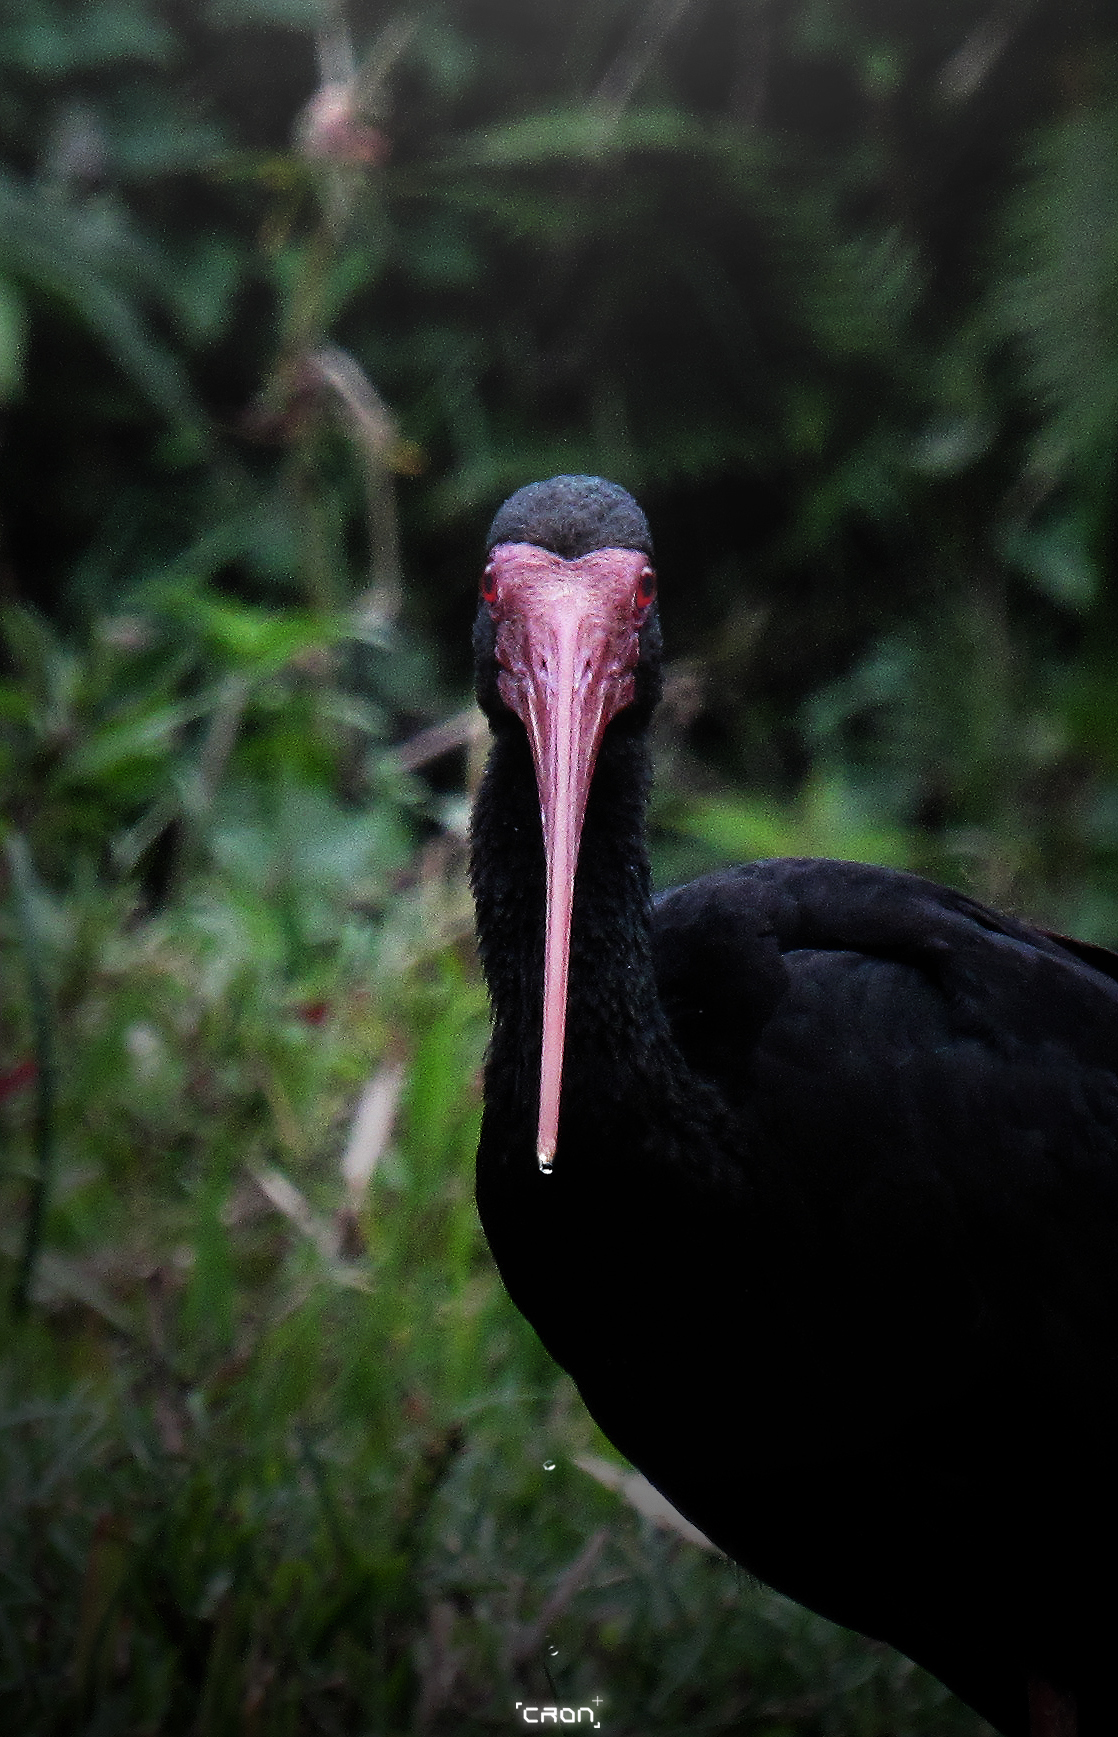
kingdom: Animalia
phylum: Chordata
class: Aves
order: Pelecaniformes
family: Threskiornithidae
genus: Phimosus
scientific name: Phimosus infuscatus
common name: Bare-faced ibis
